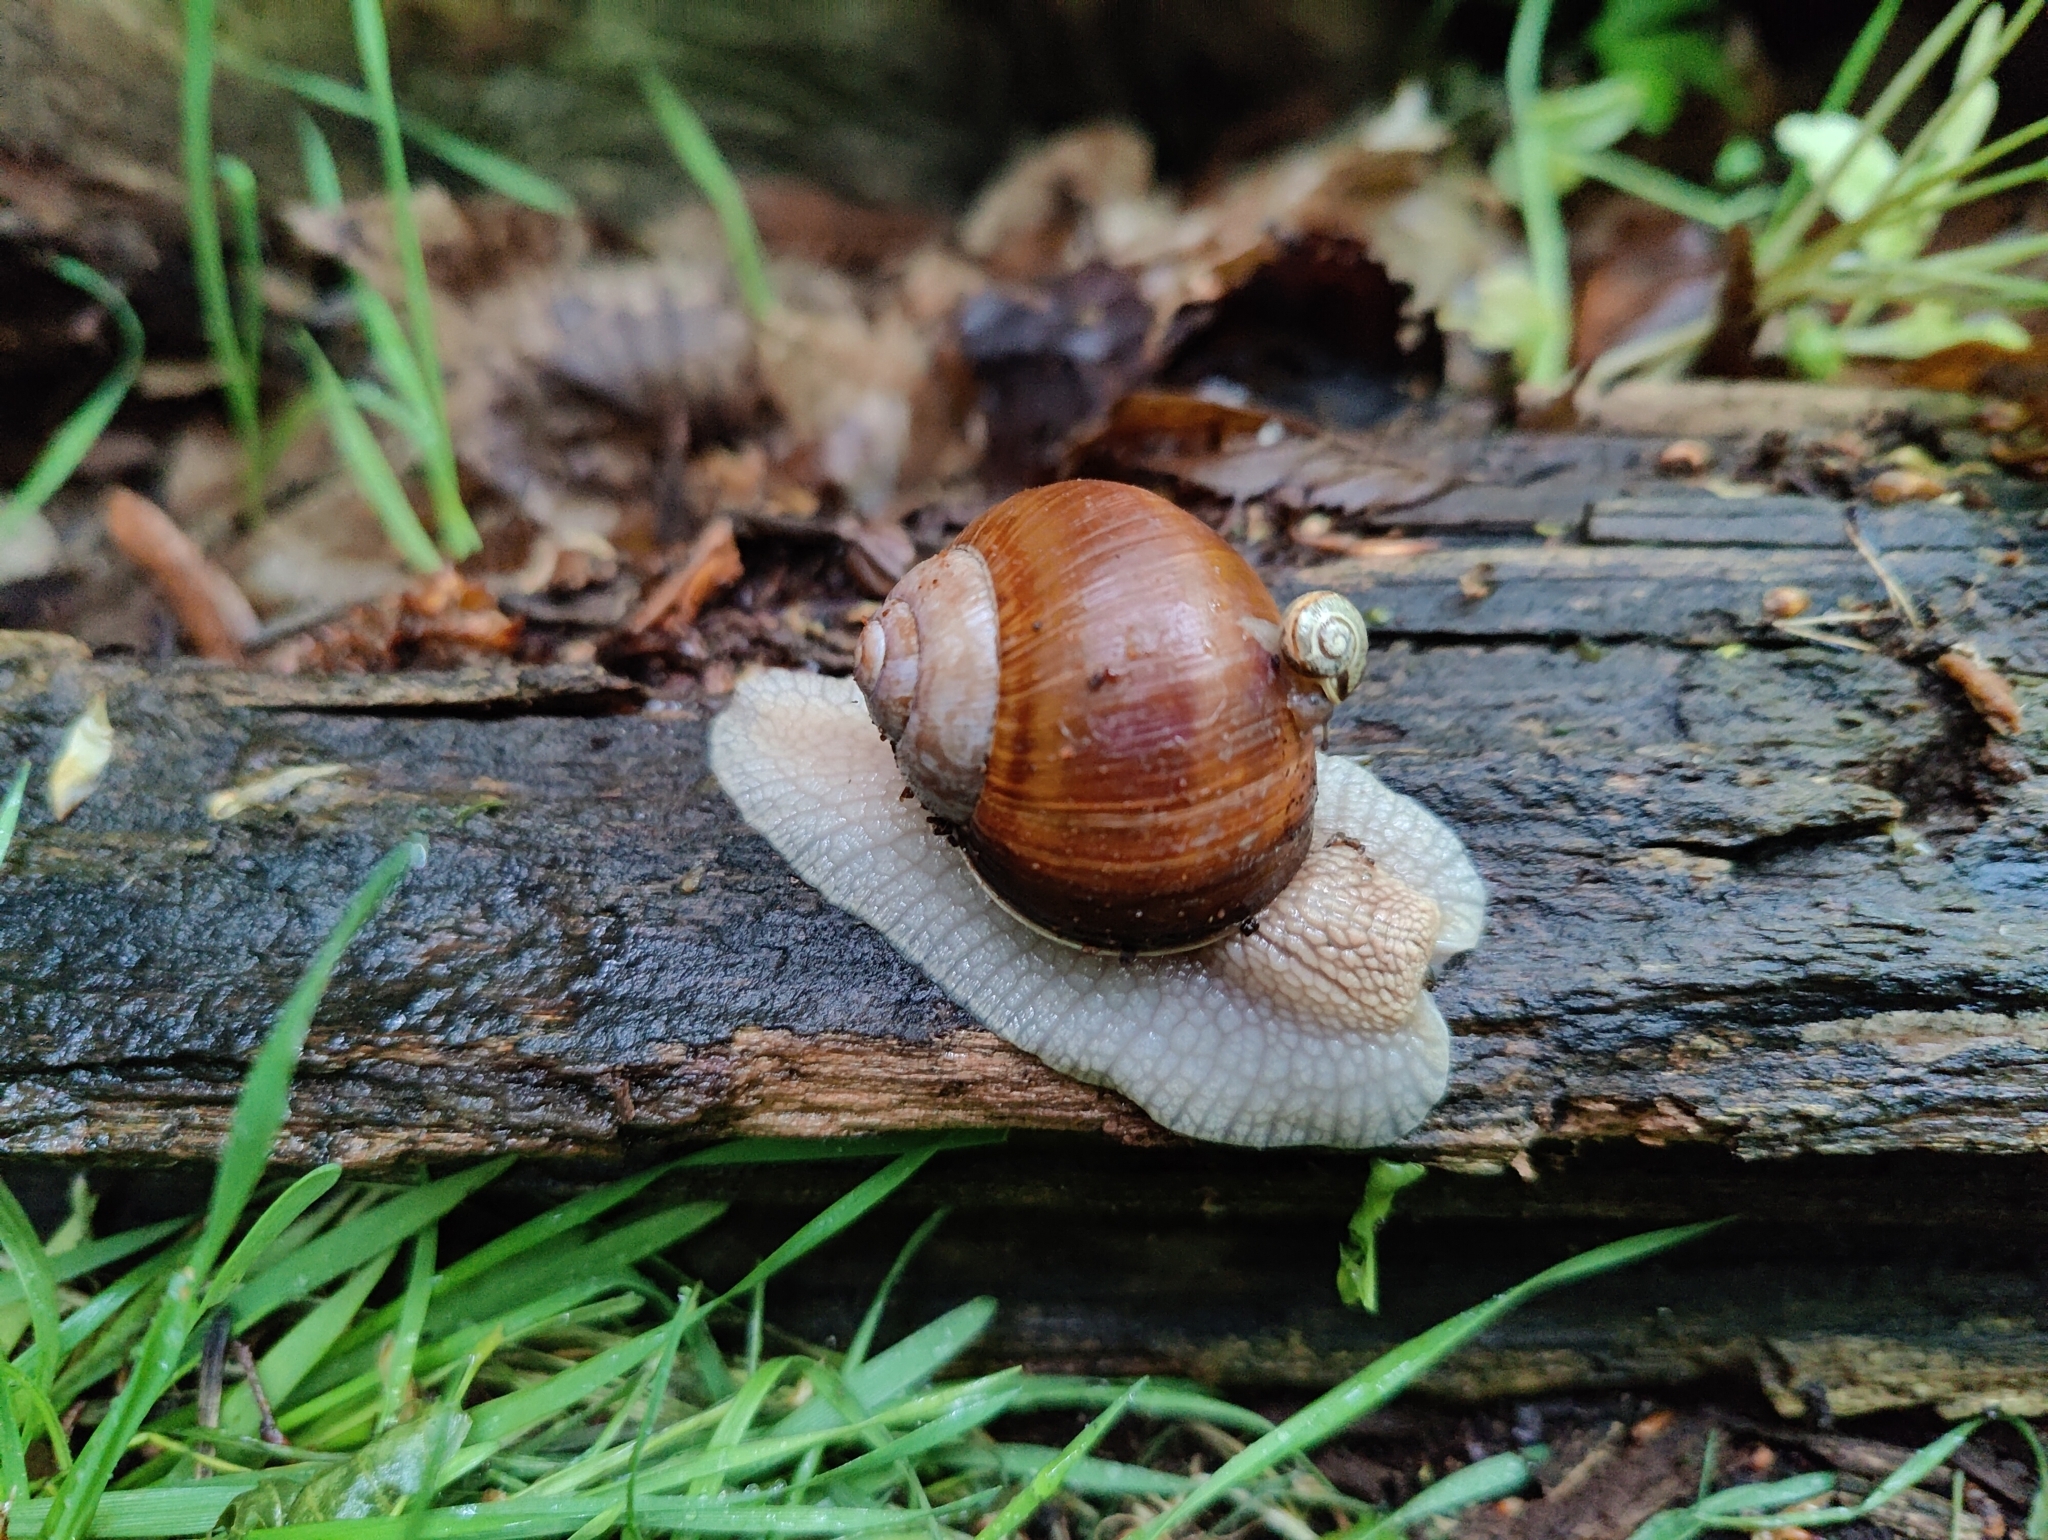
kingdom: Animalia
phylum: Mollusca
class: Gastropoda
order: Stylommatophora
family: Helicidae
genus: Helix
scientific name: Helix pomatia
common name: Roman snail
